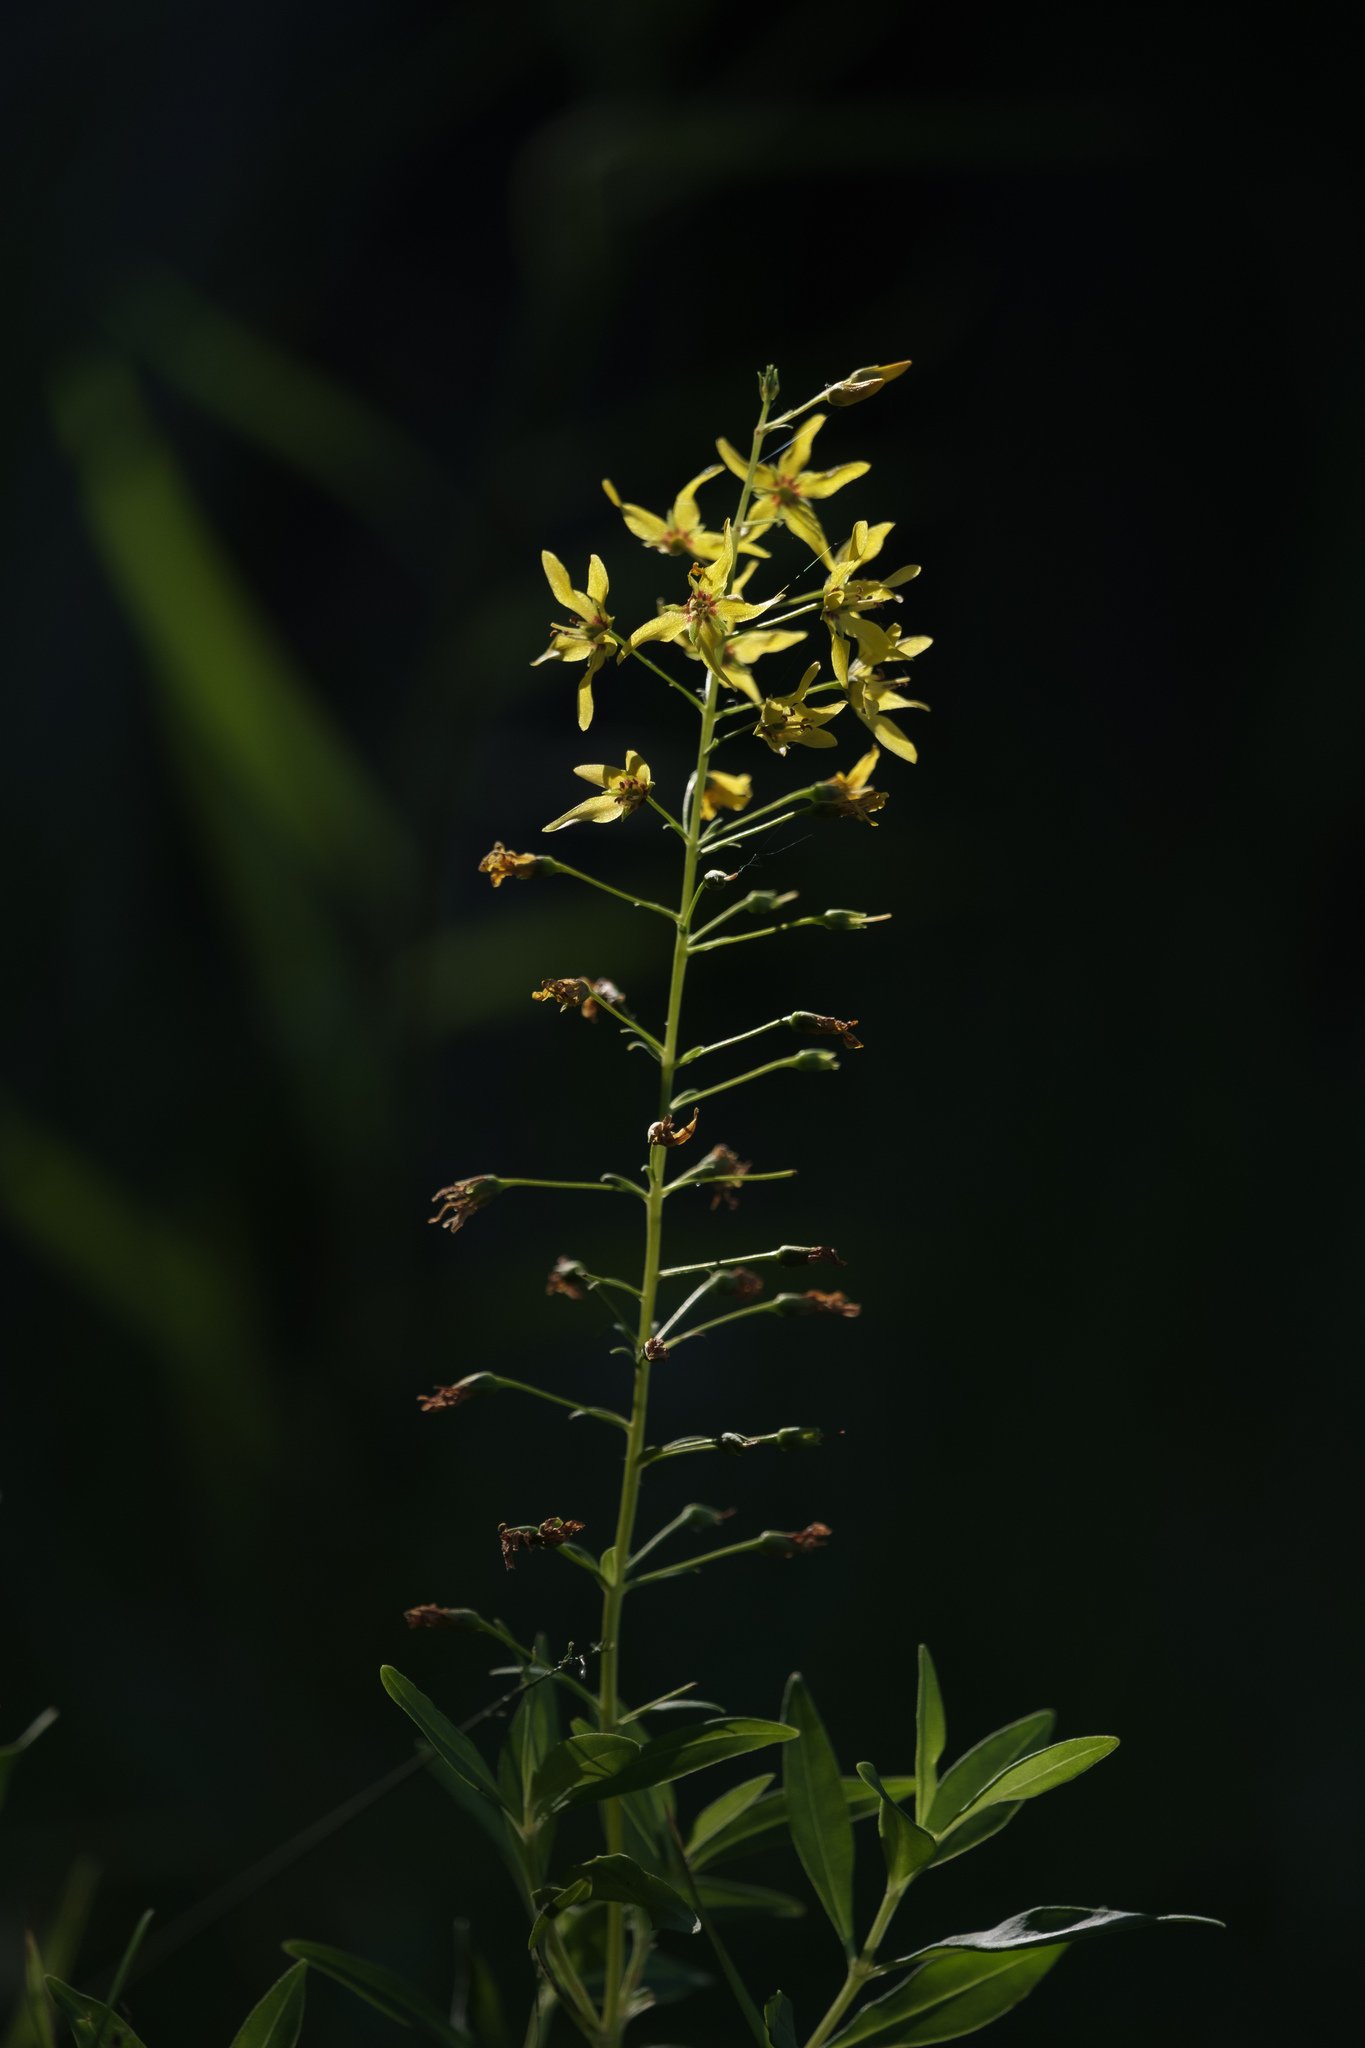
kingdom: Plantae
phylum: Tracheophyta
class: Magnoliopsida
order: Ericales
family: Primulaceae
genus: Lysimachia
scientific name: Lysimachia terrestris
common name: Lake loosestrife
